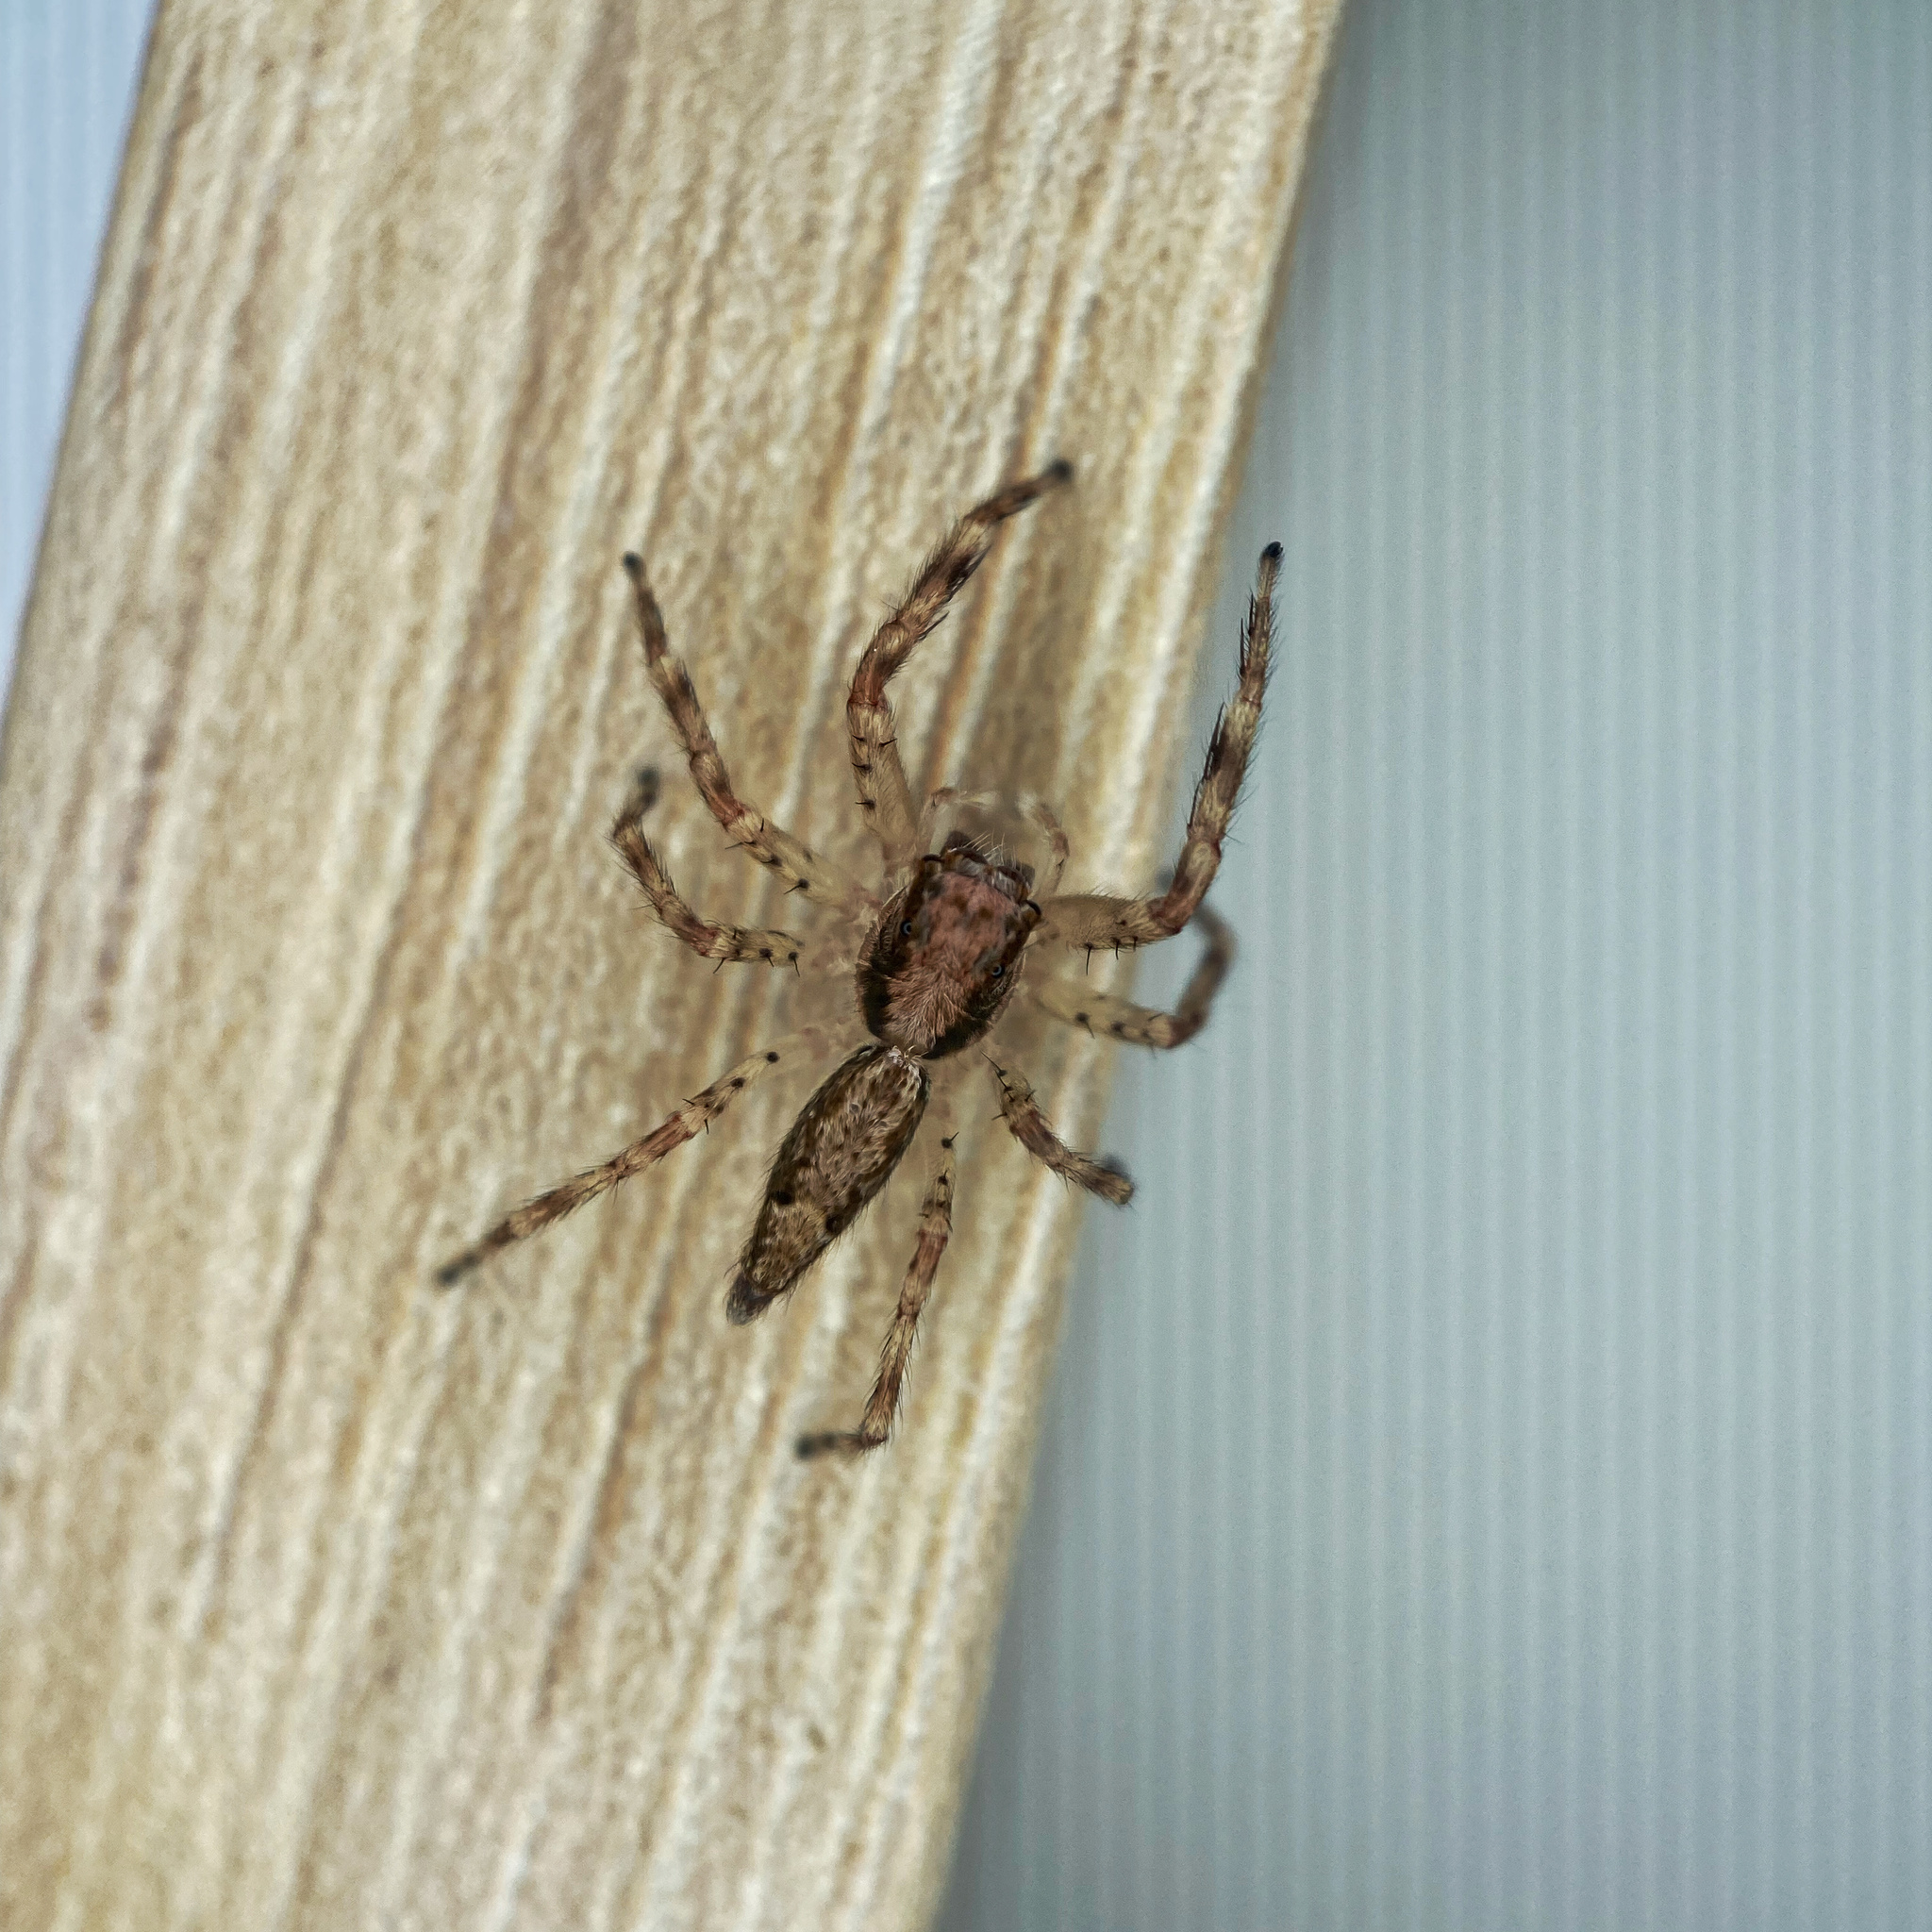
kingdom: Animalia
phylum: Arthropoda
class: Arachnida
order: Araneae
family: Salticidae
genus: Helpis
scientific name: Helpis minitabunda
